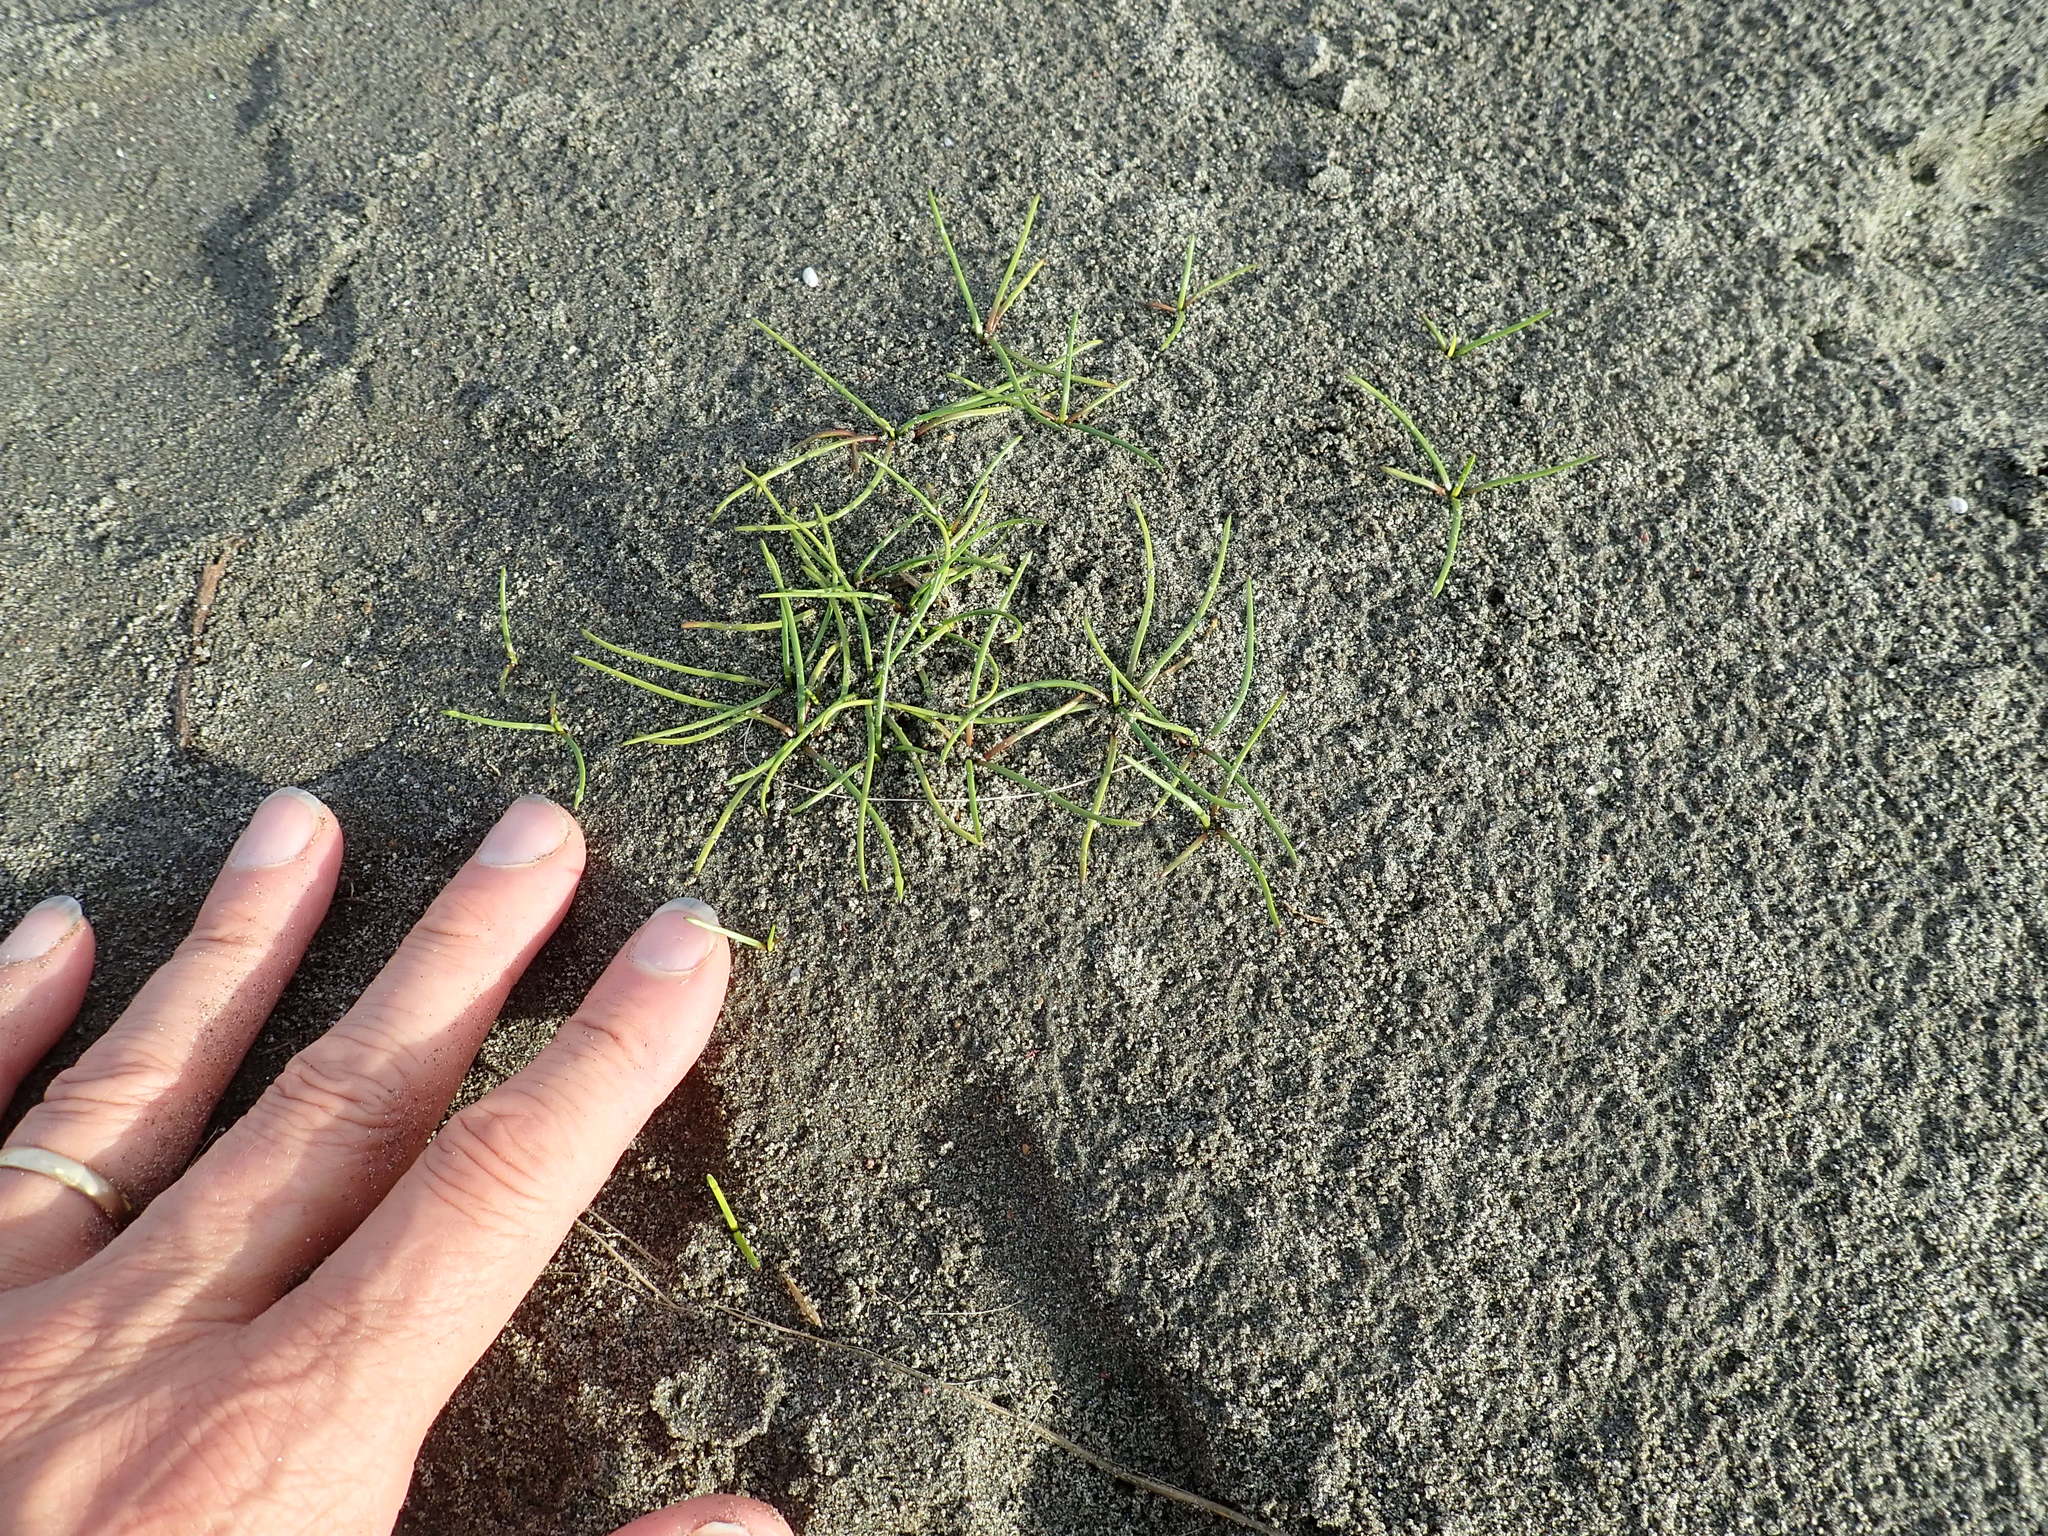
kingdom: Plantae
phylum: Tracheophyta
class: Liliopsida
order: Alismatales
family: Juncaginaceae
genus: Triglochin
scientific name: Triglochin striata
